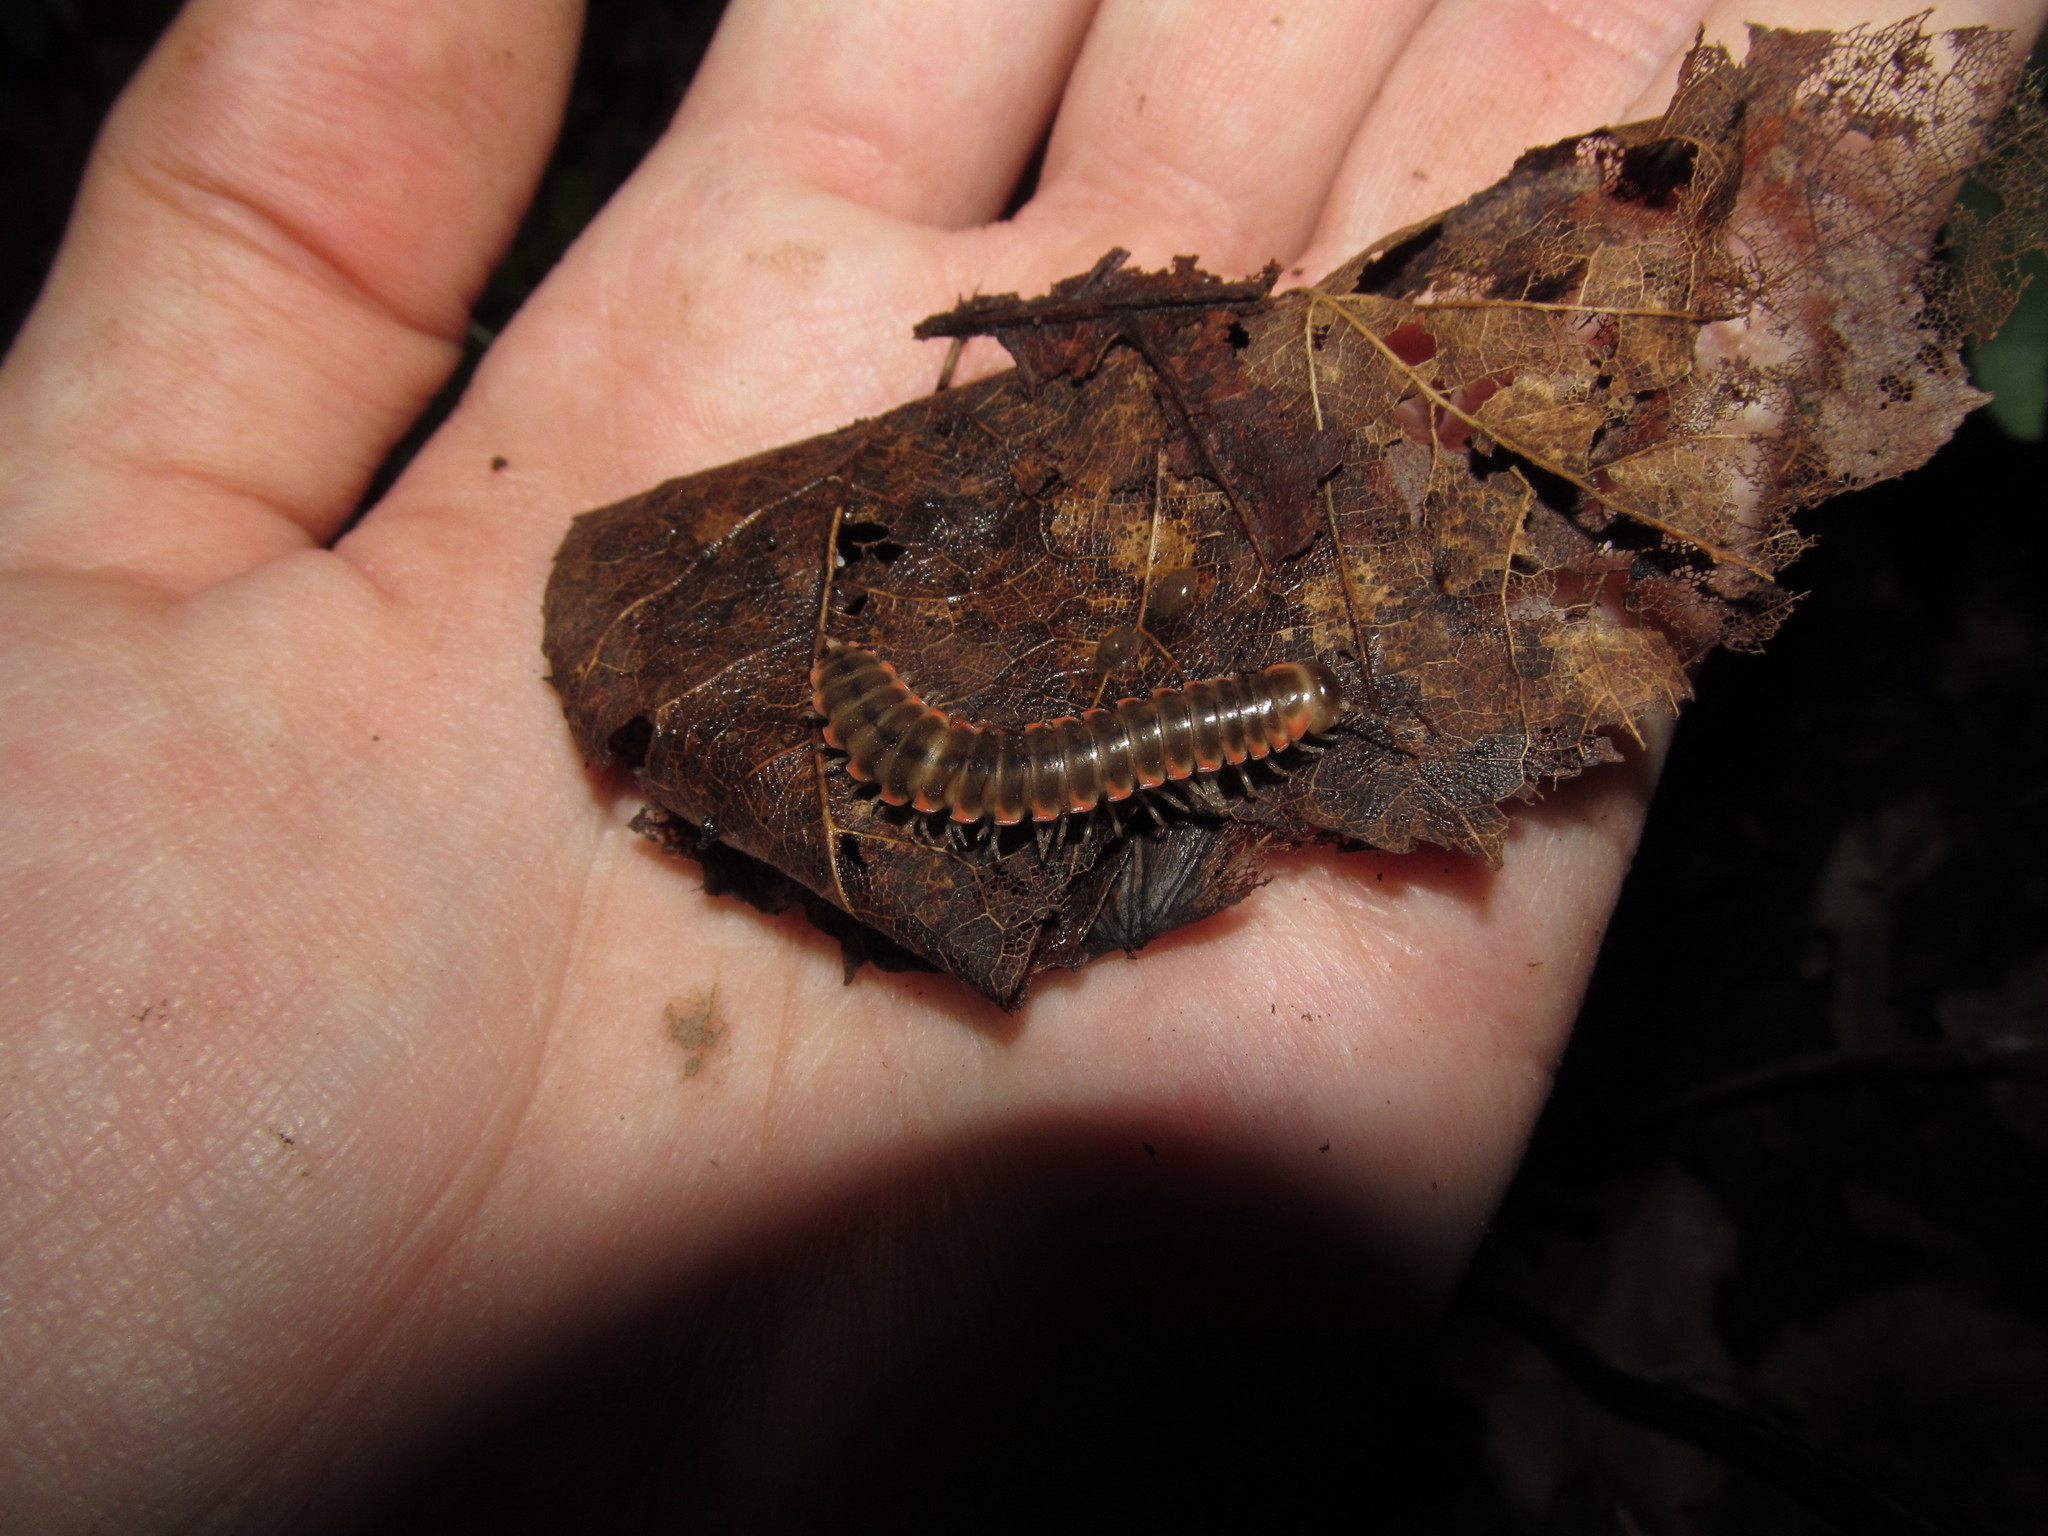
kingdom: Animalia
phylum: Arthropoda
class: Diplopoda
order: Polydesmida
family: Xystodesmidae
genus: Nannaria
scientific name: Nannaria ohionis
